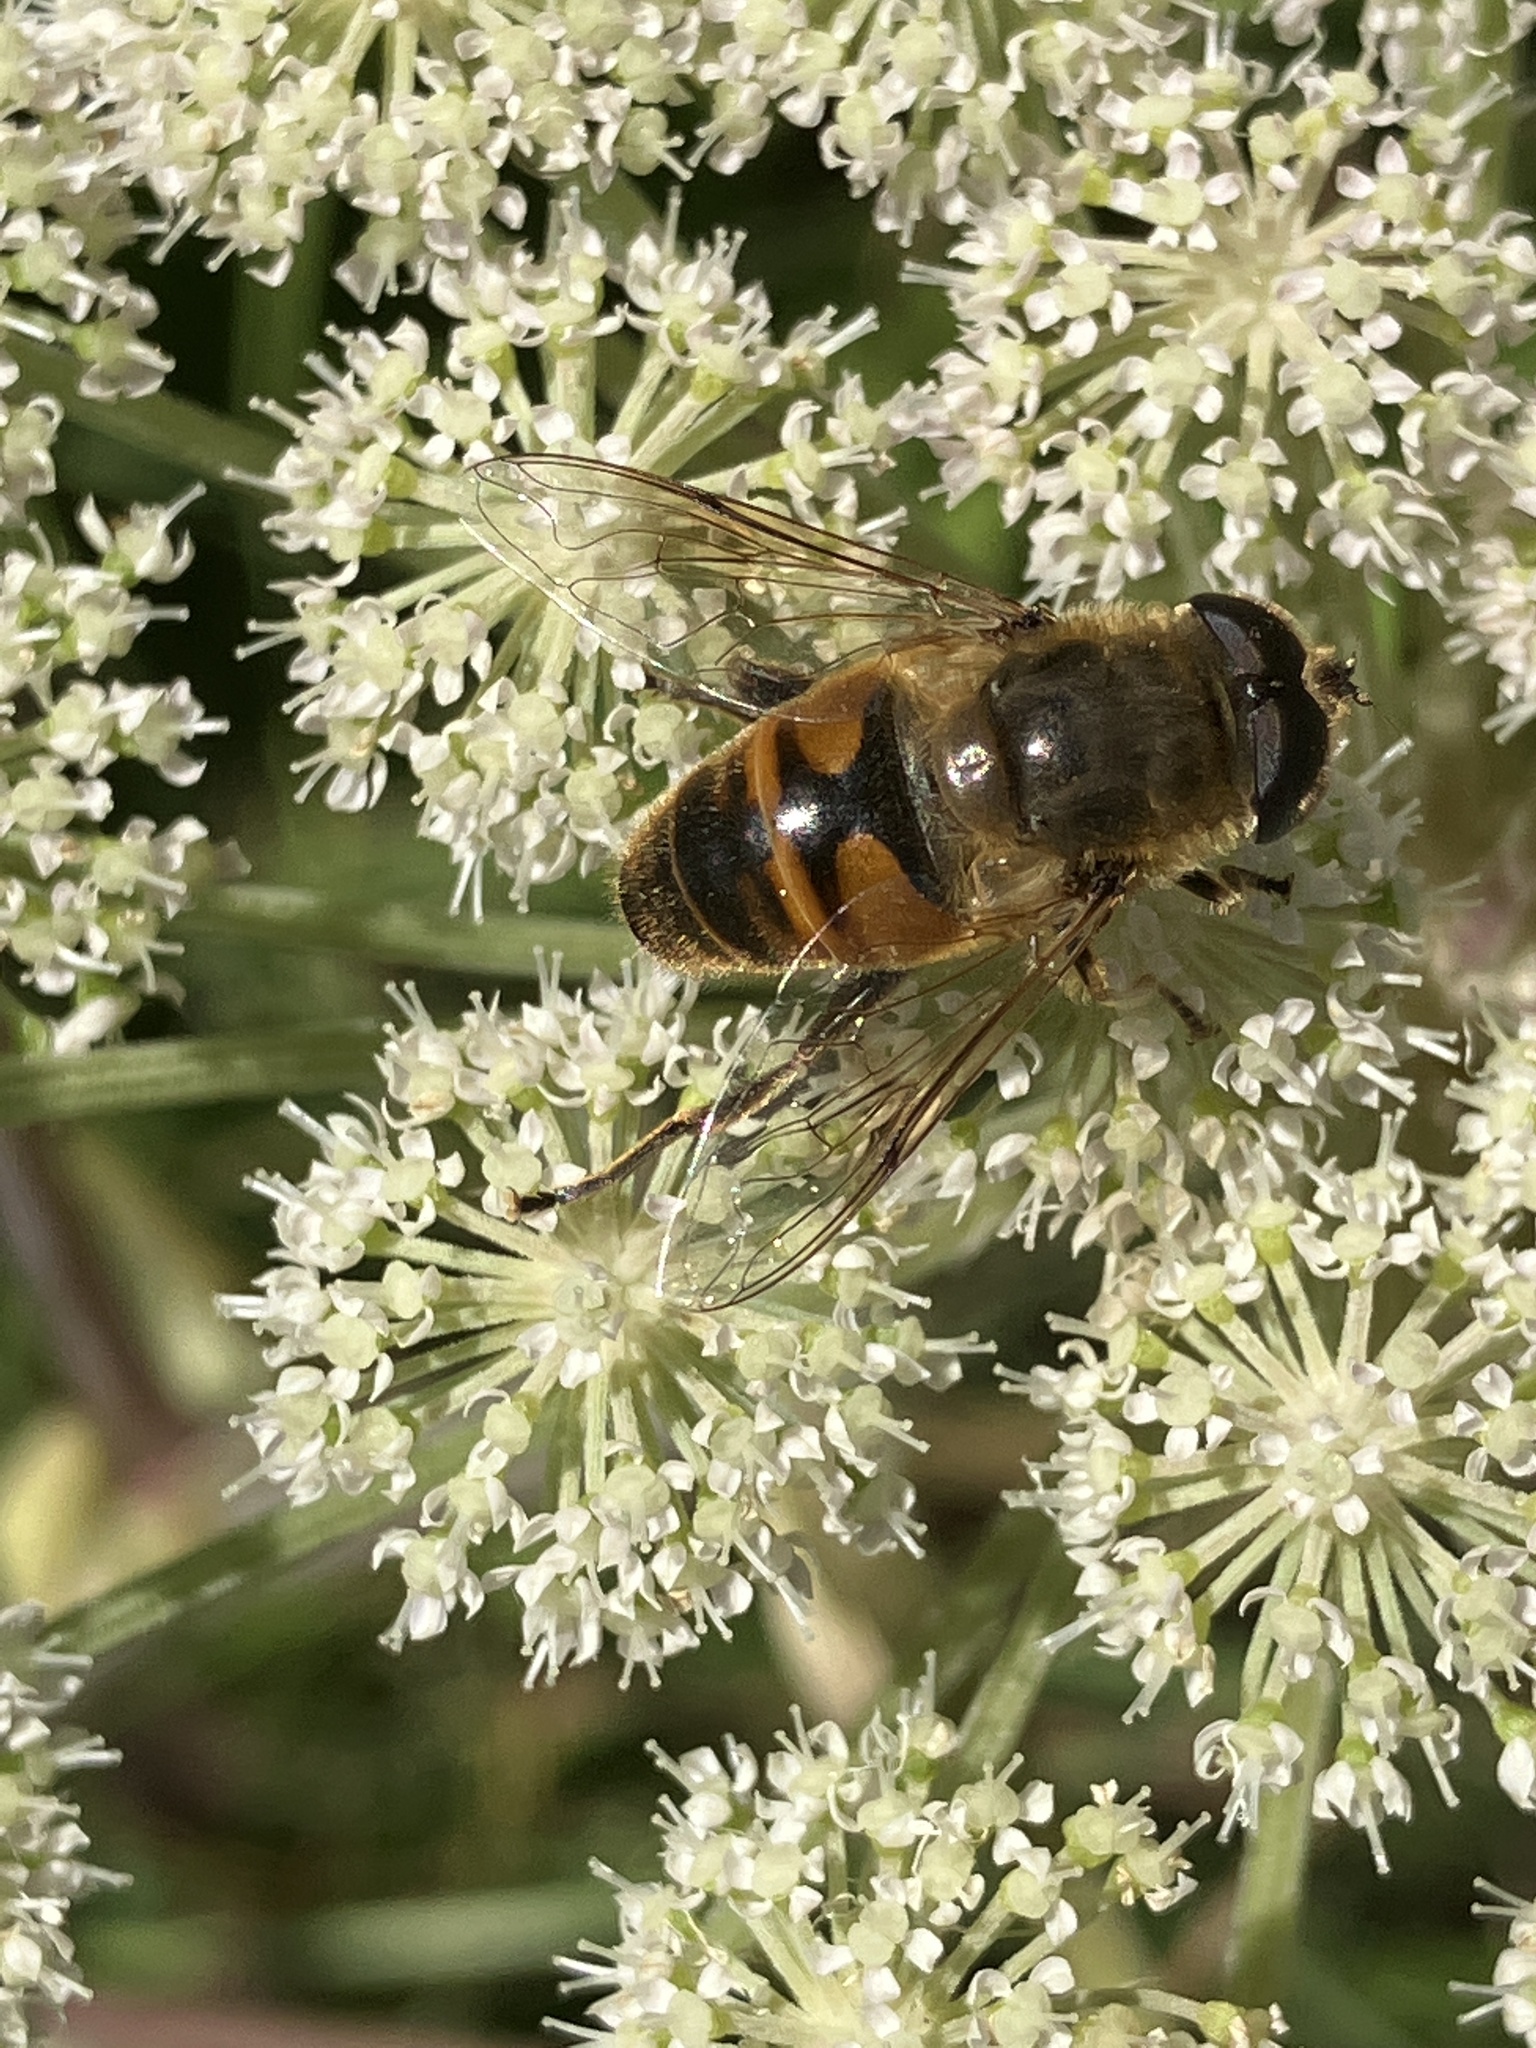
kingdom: Animalia
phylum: Arthropoda
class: Insecta
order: Diptera
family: Syrphidae
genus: Eristalis
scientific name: Eristalis tenax
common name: Drone fly
